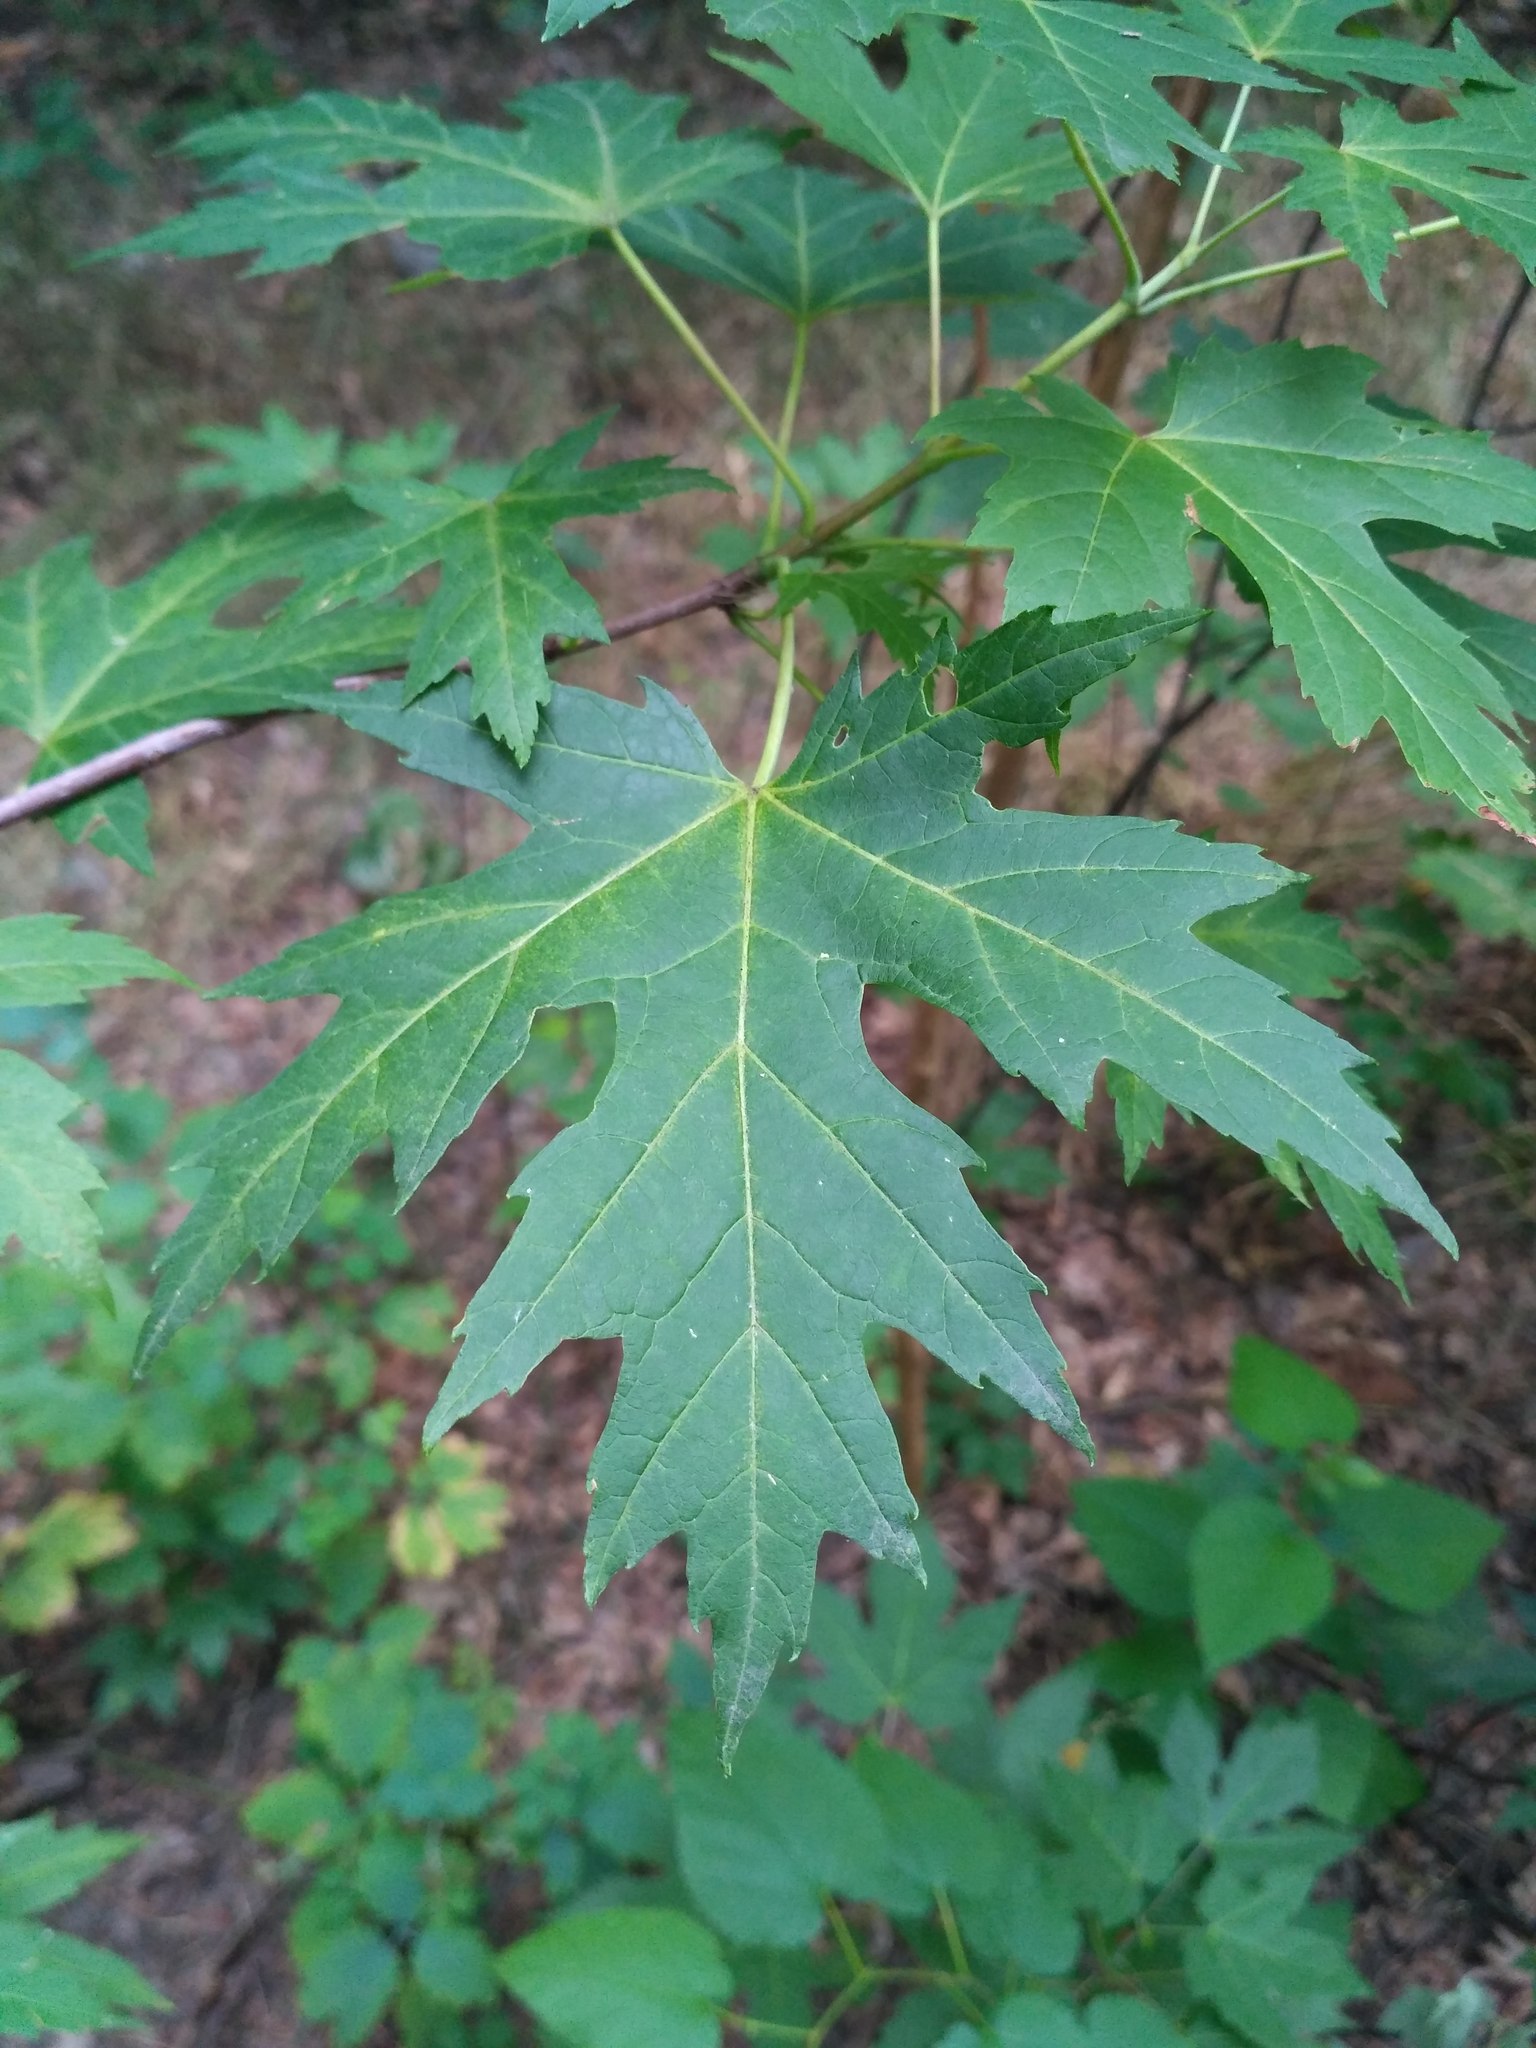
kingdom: Plantae
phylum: Tracheophyta
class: Magnoliopsida
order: Sapindales
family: Sapindaceae
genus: Acer
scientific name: Acer saccharinum
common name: Silver maple
